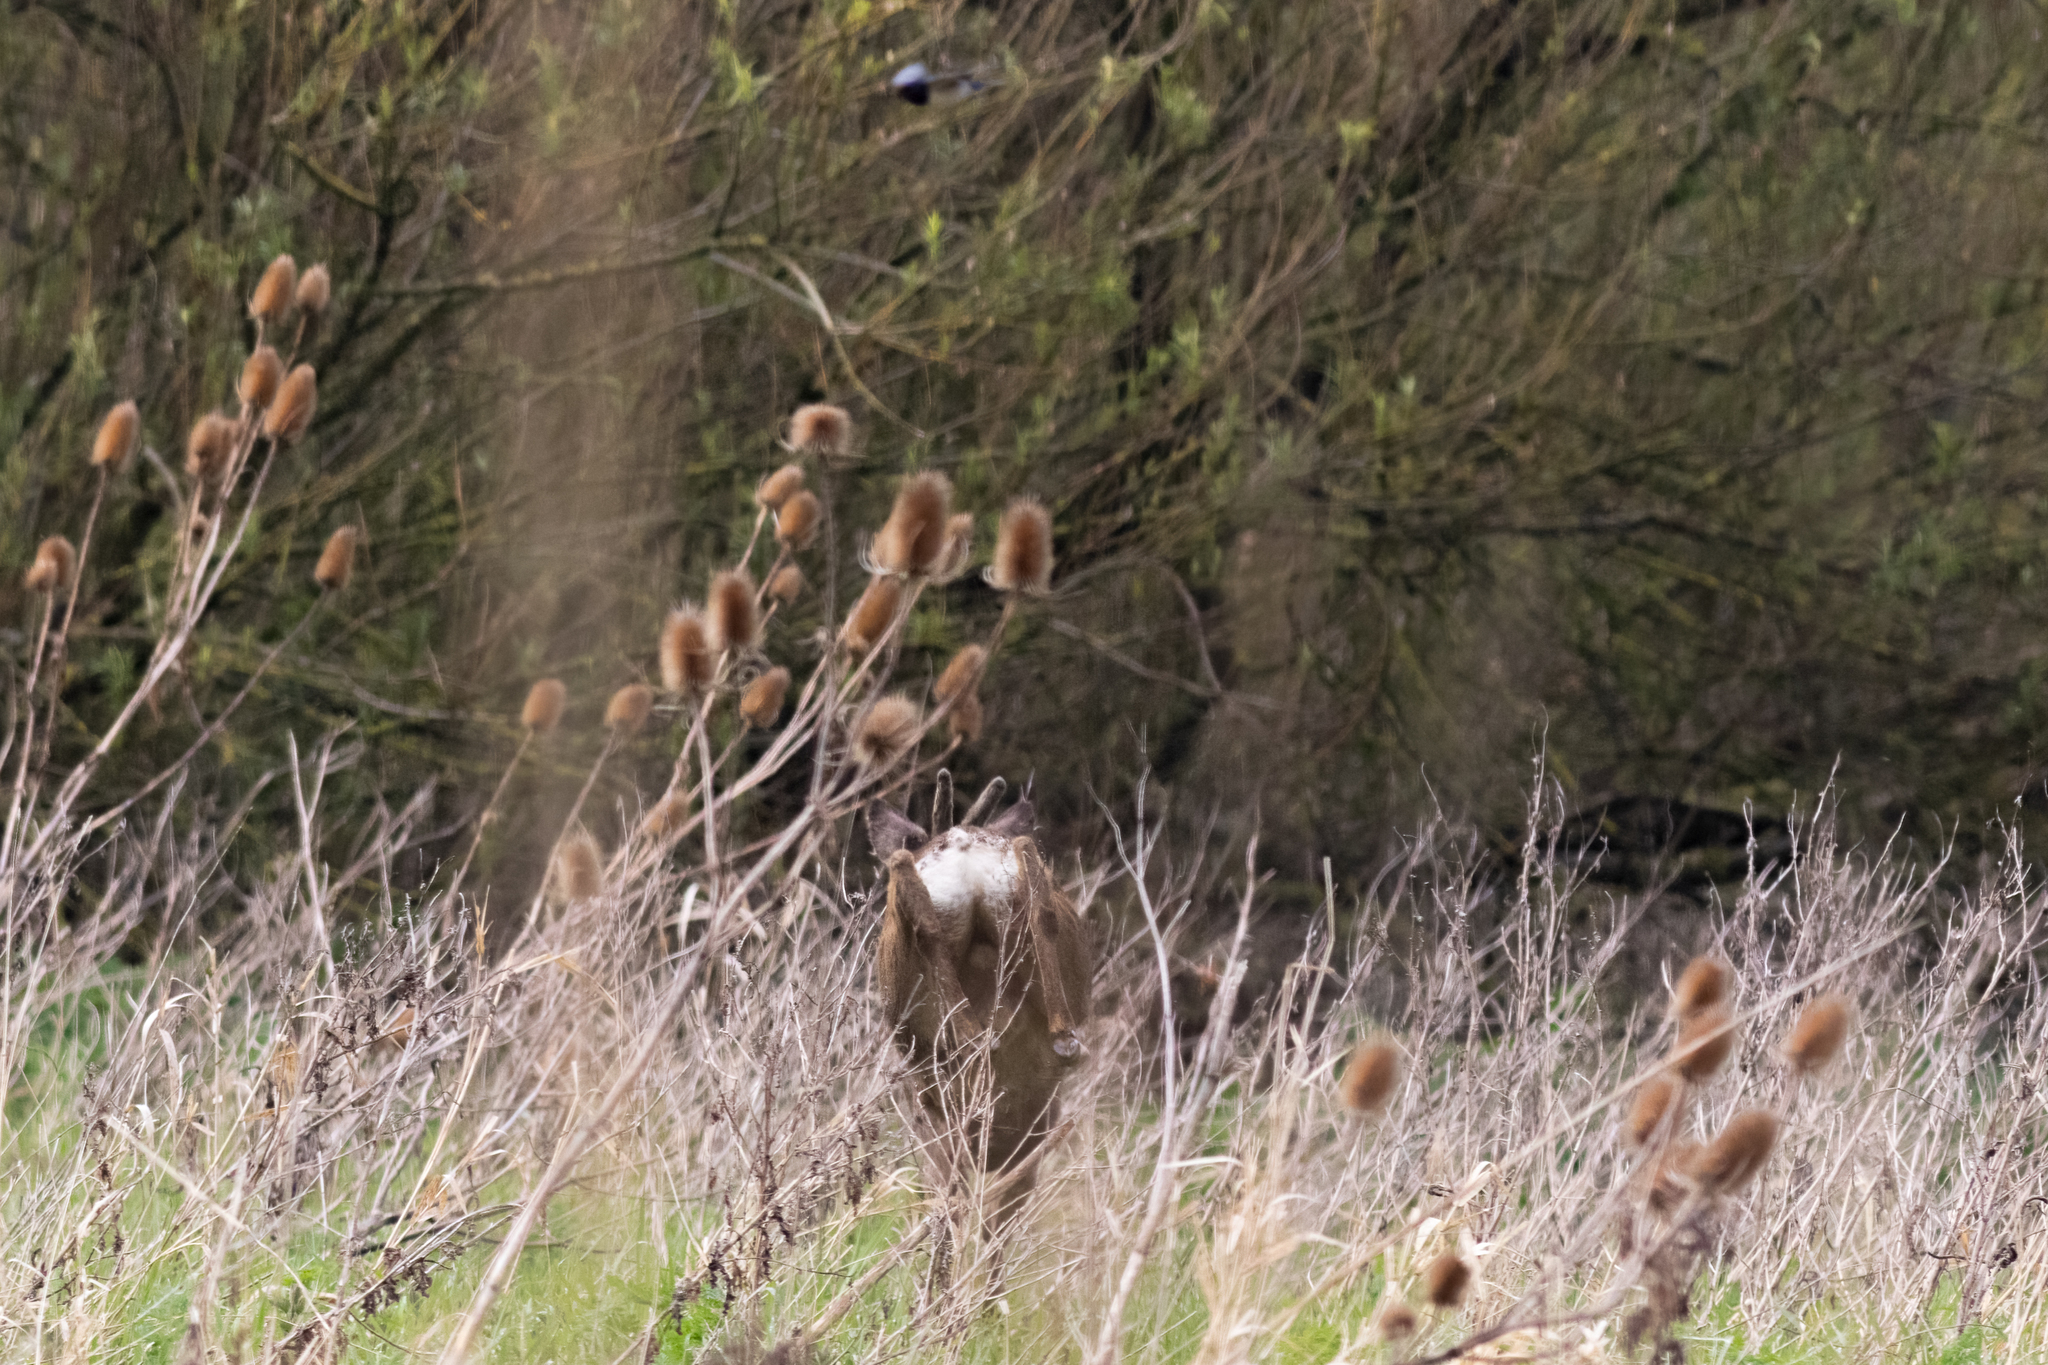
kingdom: Animalia
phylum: Chordata
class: Mammalia
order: Artiodactyla
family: Cervidae
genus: Capreolus
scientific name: Capreolus capreolus
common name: Western roe deer
